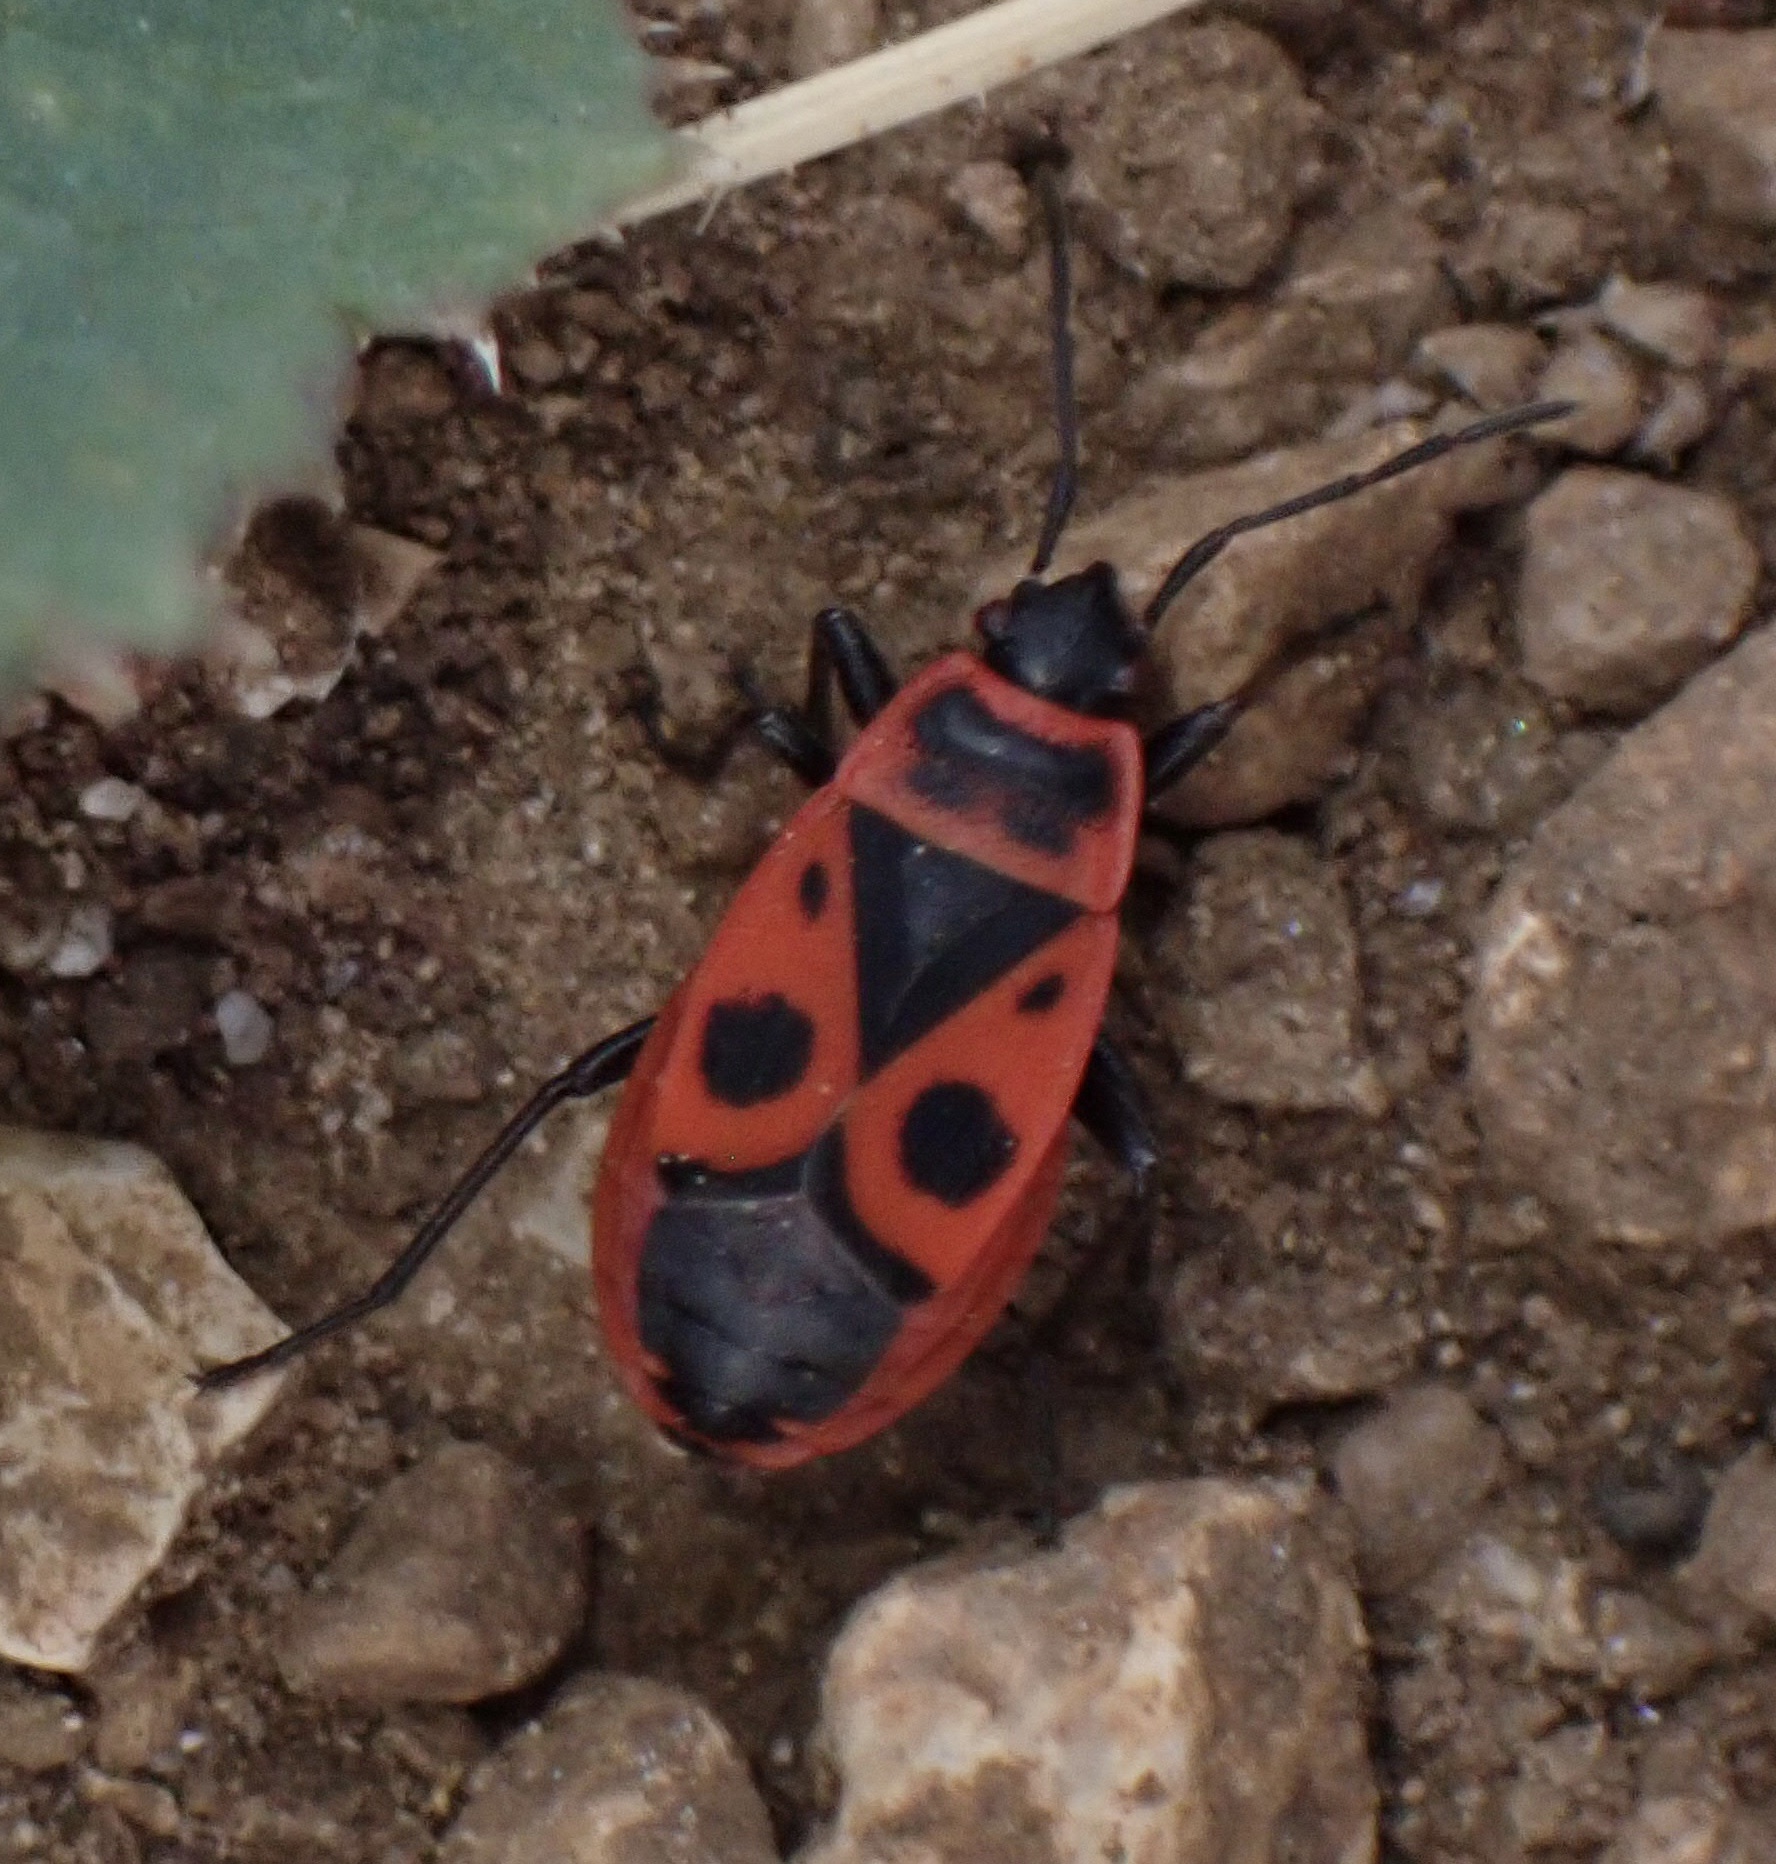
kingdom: Animalia
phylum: Arthropoda
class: Insecta
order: Hemiptera
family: Pyrrhocoridae
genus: Pyrrhocoris
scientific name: Pyrrhocoris apterus
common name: Firebug
